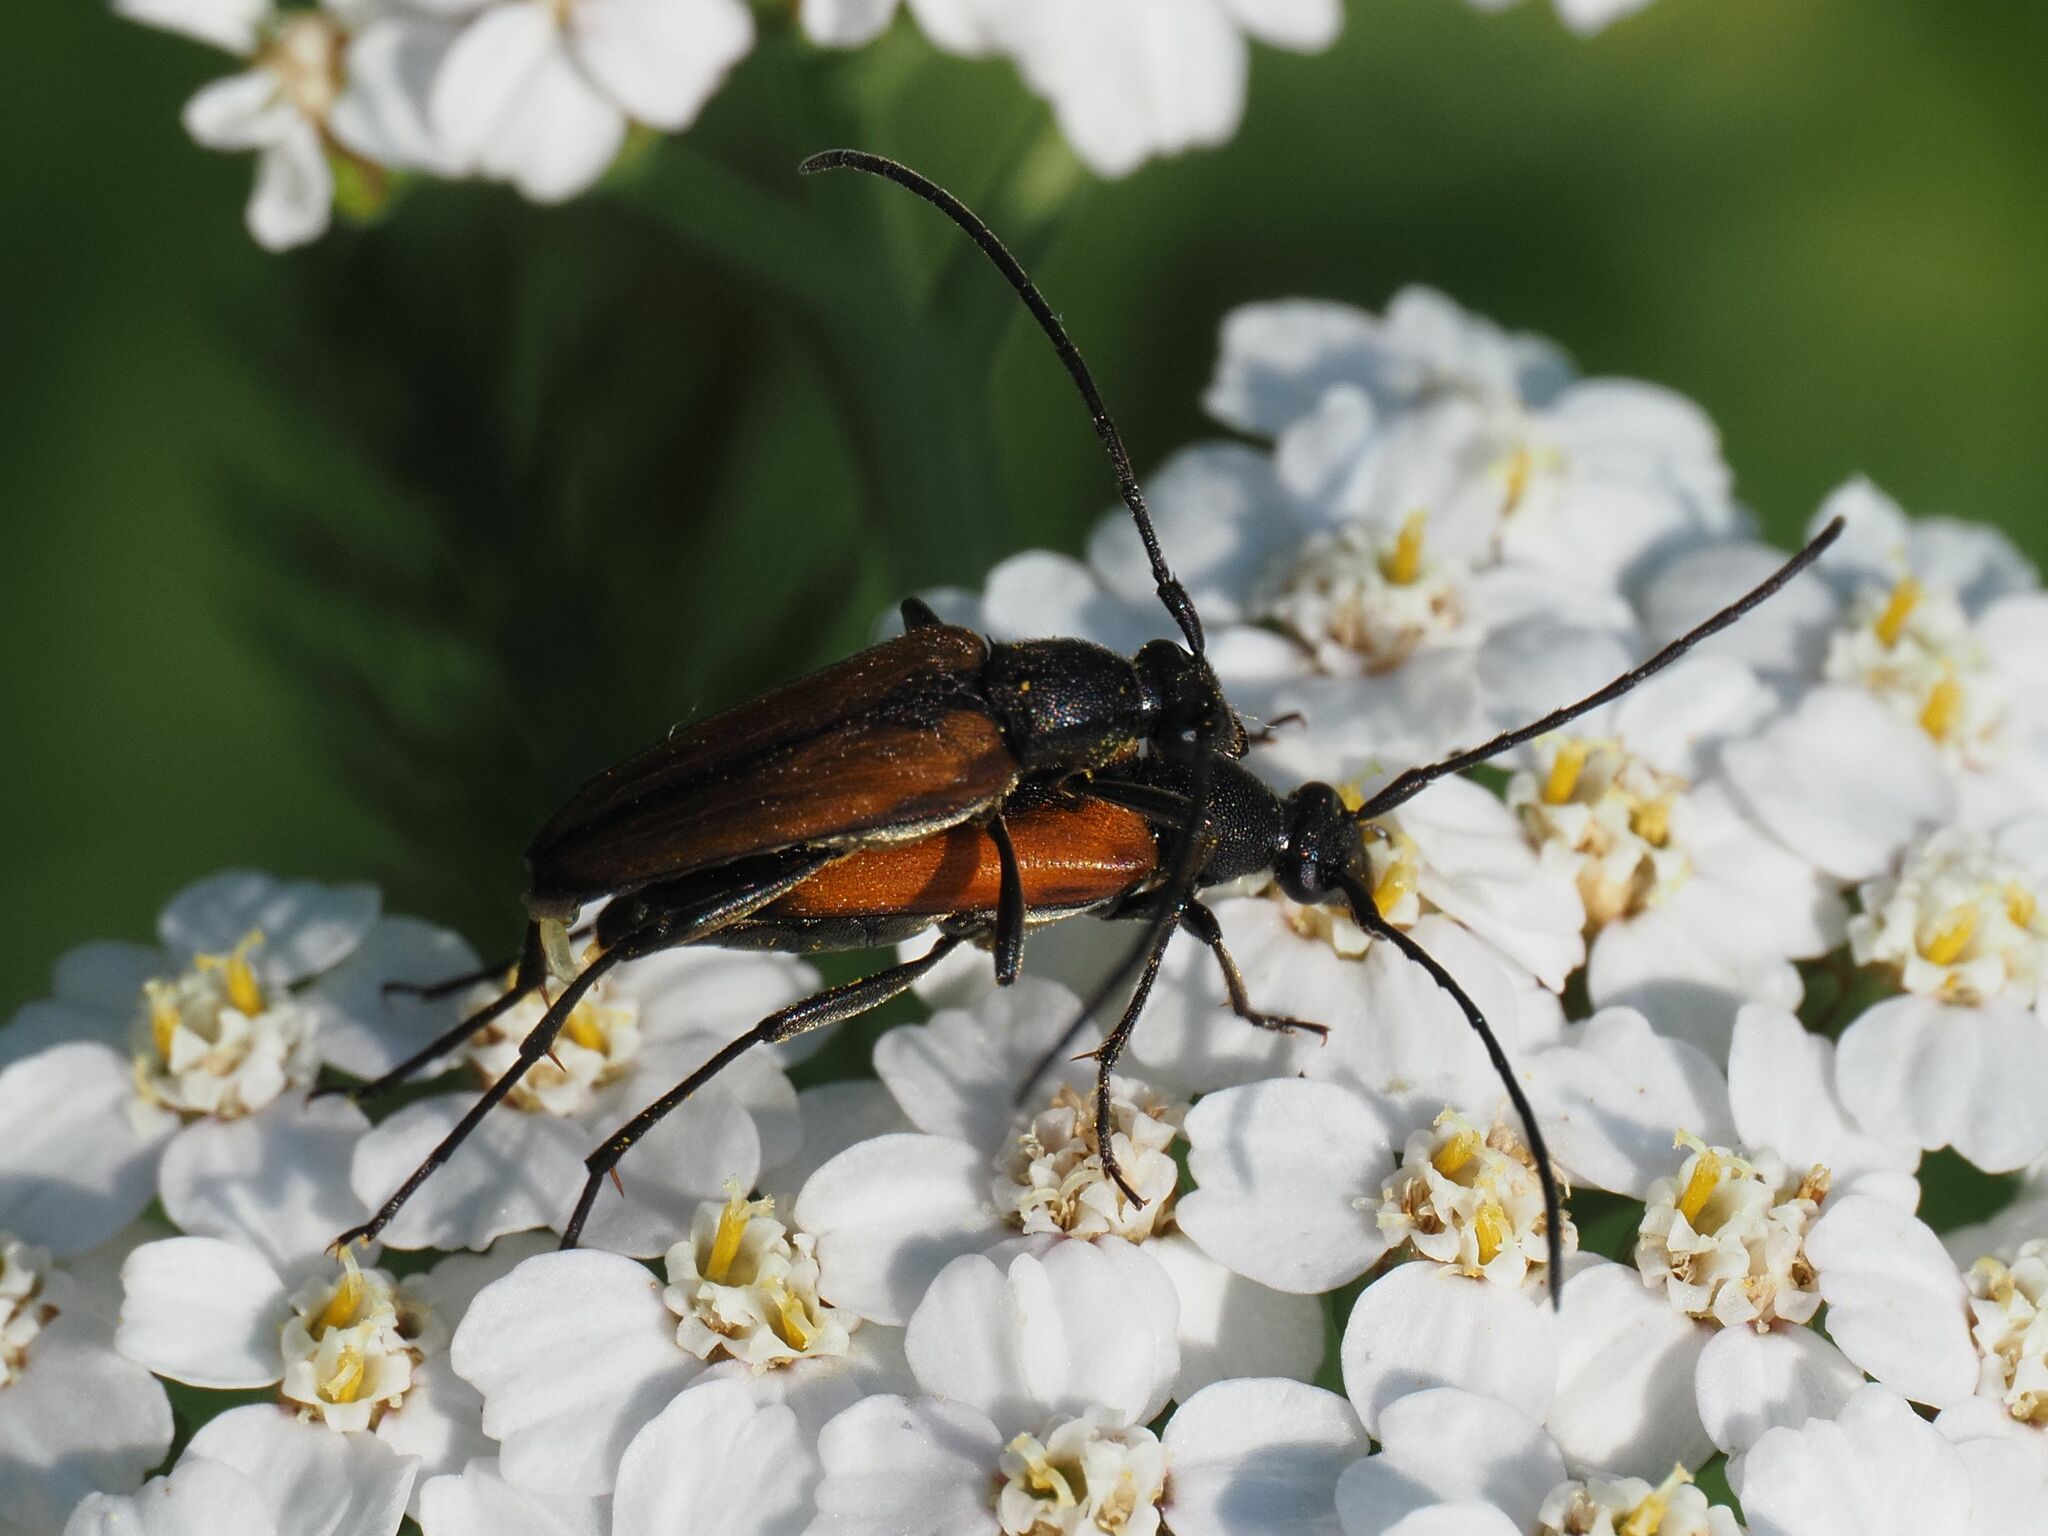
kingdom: Animalia
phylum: Arthropoda
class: Insecta
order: Coleoptera
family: Cerambycidae
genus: Stenurella
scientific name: Stenurella melanura
